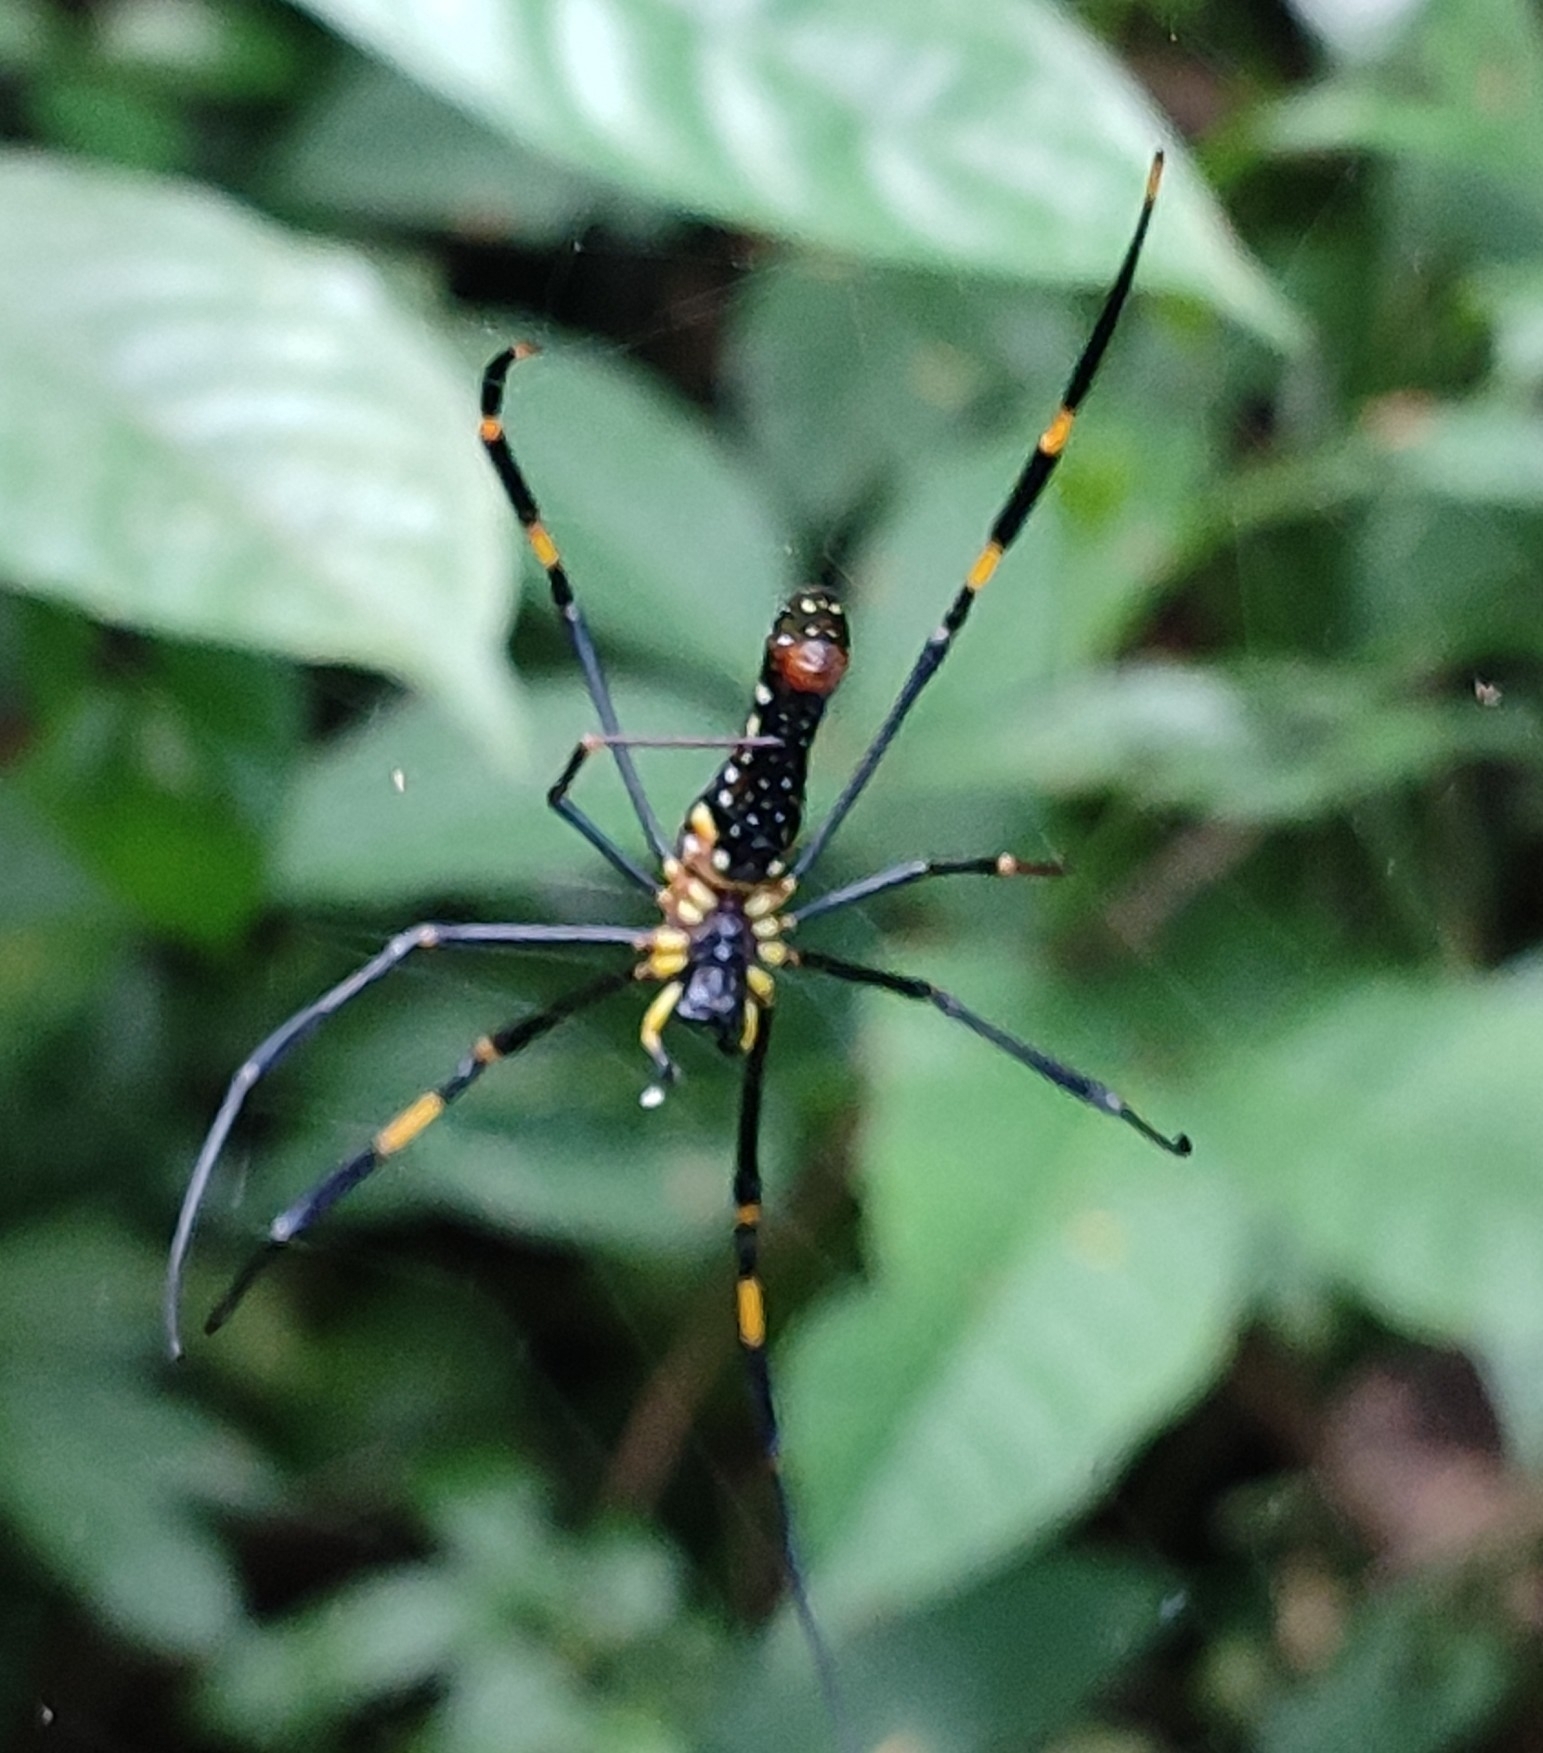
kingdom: Animalia
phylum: Arthropoda
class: Arachnida
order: Araneae
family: Araneidae
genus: Nephila
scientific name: Nephila pilipes
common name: Giant golden orb weaver
